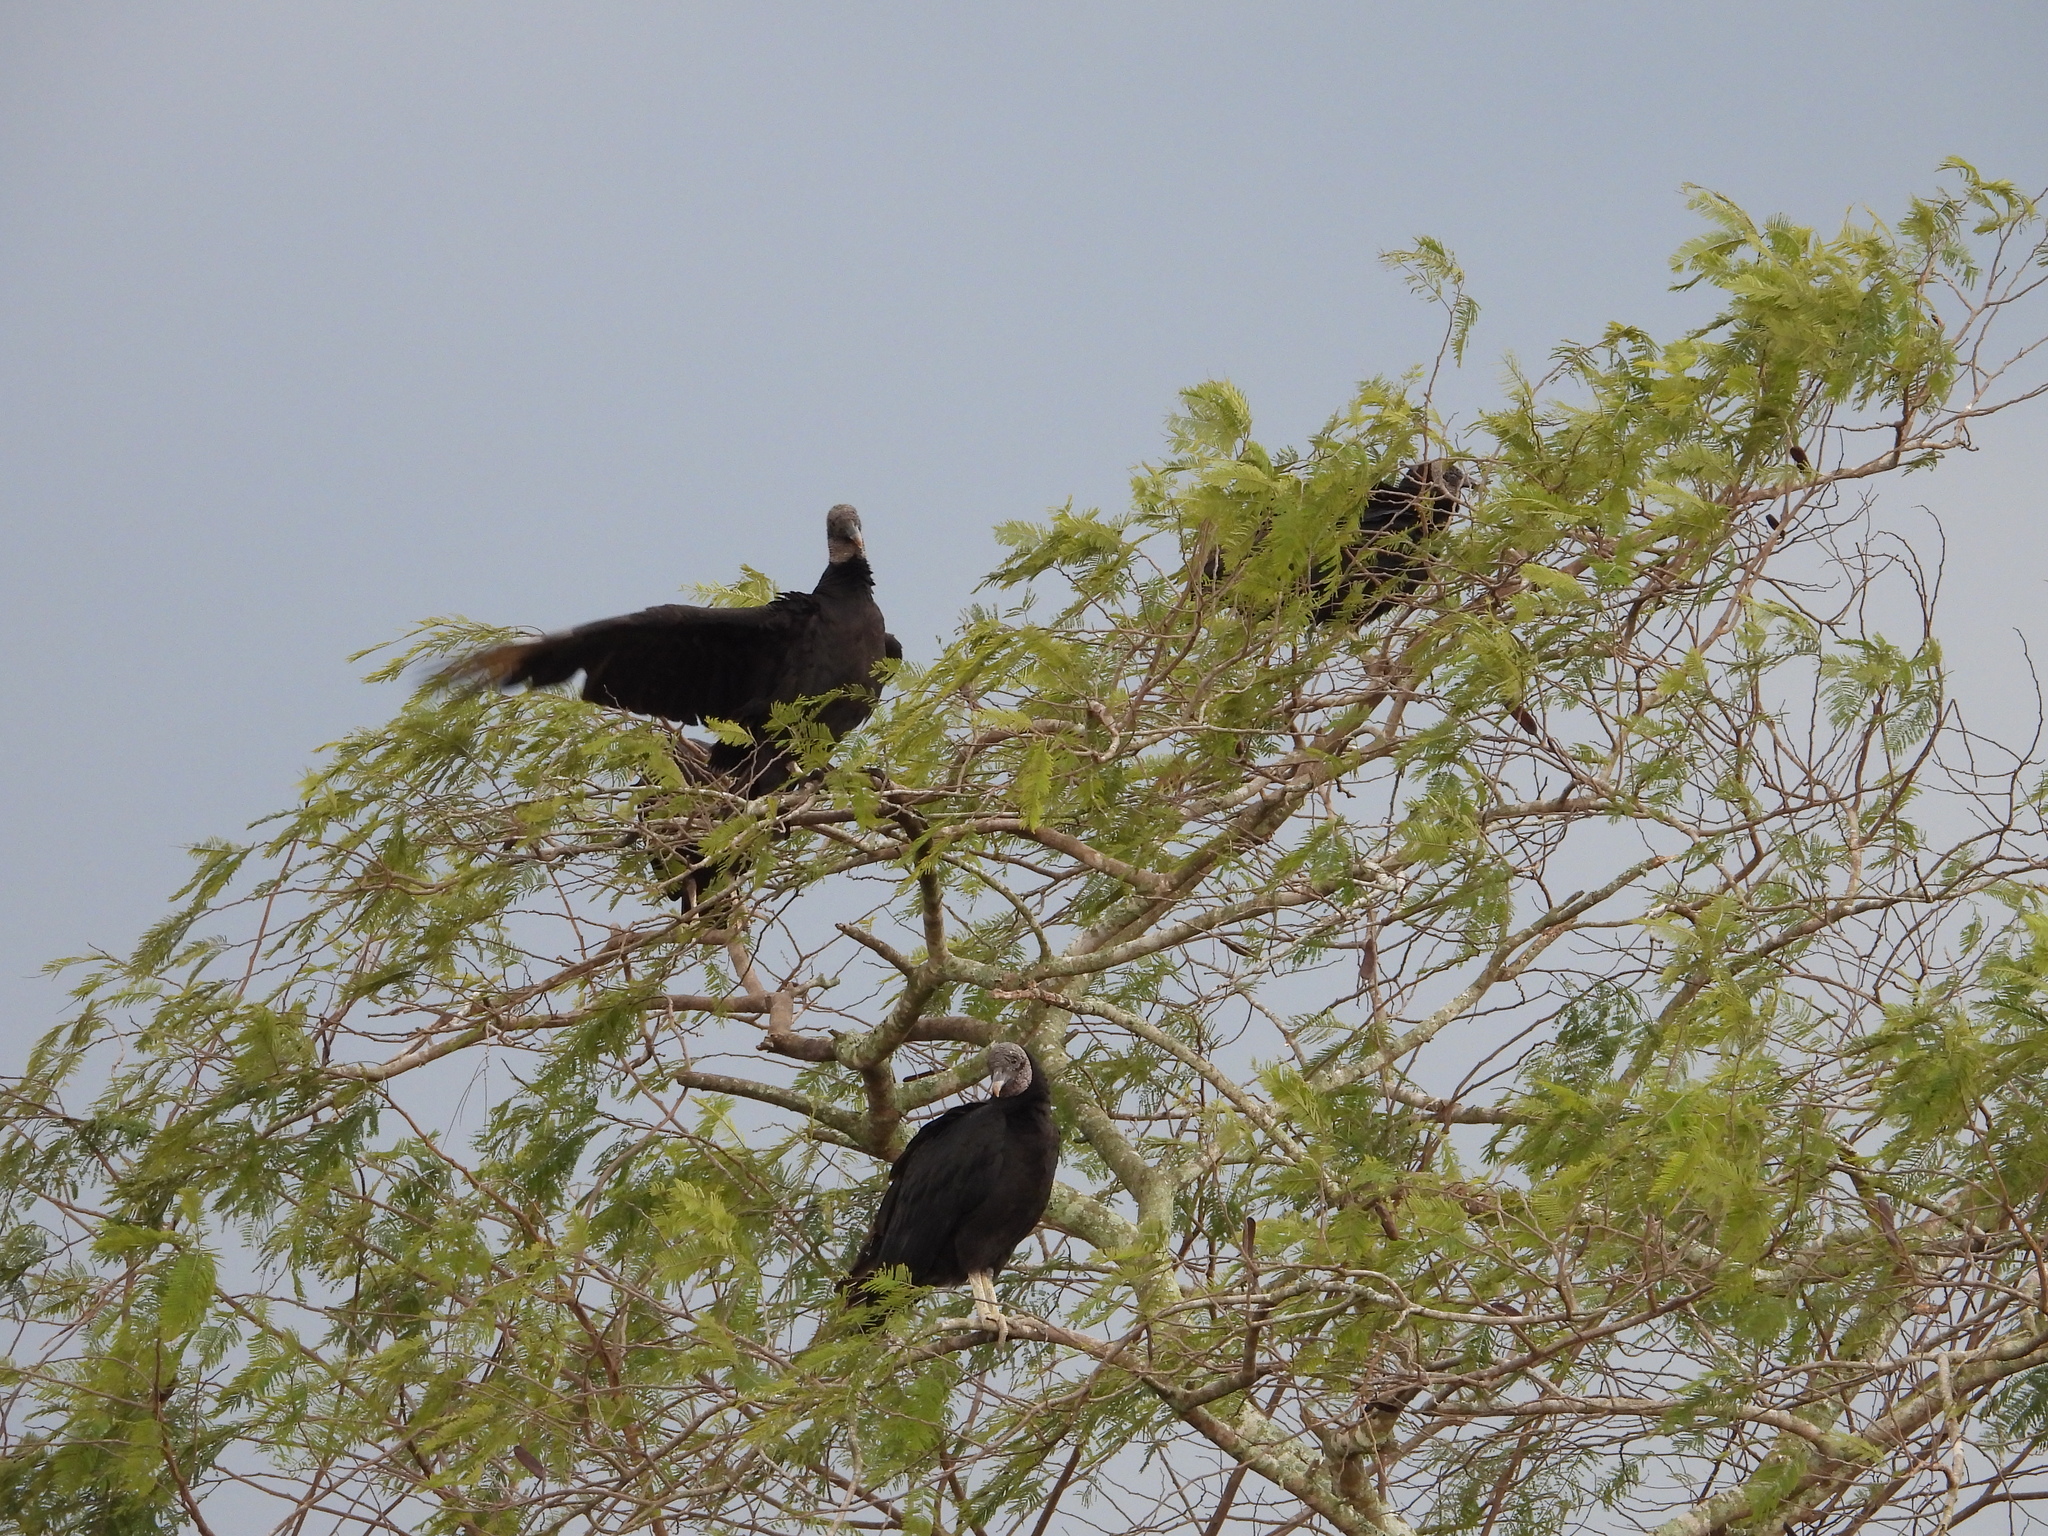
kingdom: Animalia
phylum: Chordata
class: Aves
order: Accipitriformes
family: Cathartidae
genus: Coragyps
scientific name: Coragyps atratus
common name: Black vulture
